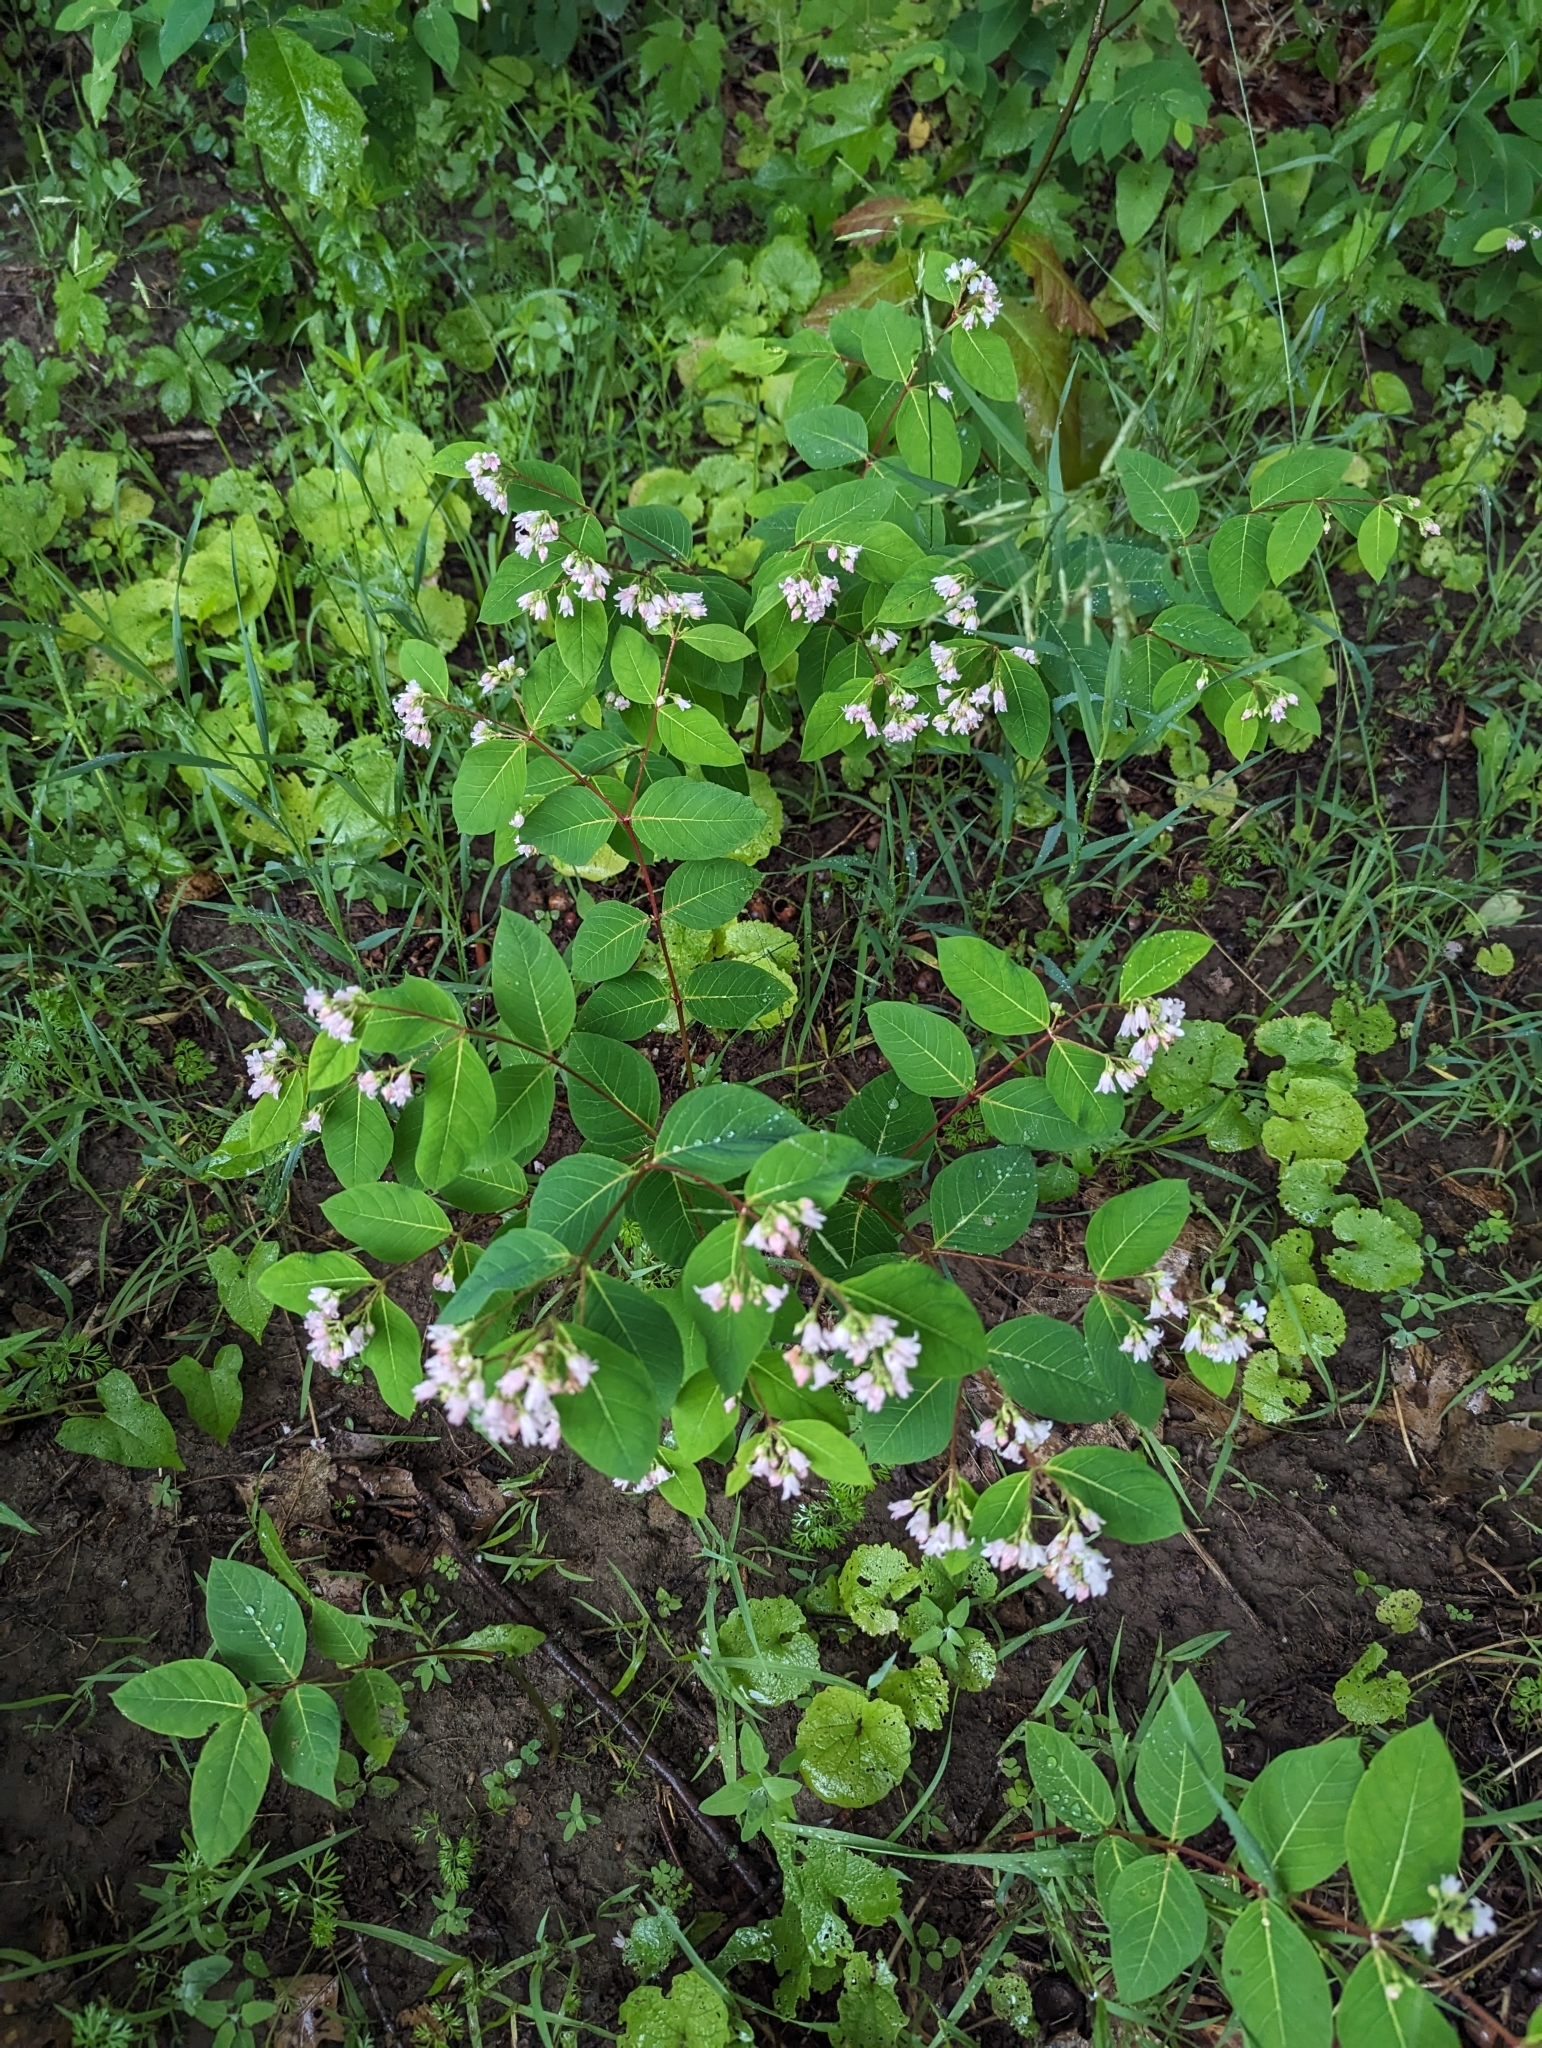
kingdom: Plantae
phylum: Tracheophyta
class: Magnoliopsida
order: Gentianales
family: Apocynaceae
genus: Apocynum
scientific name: Apocynum androsaemifolium
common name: Spreading dogbane
